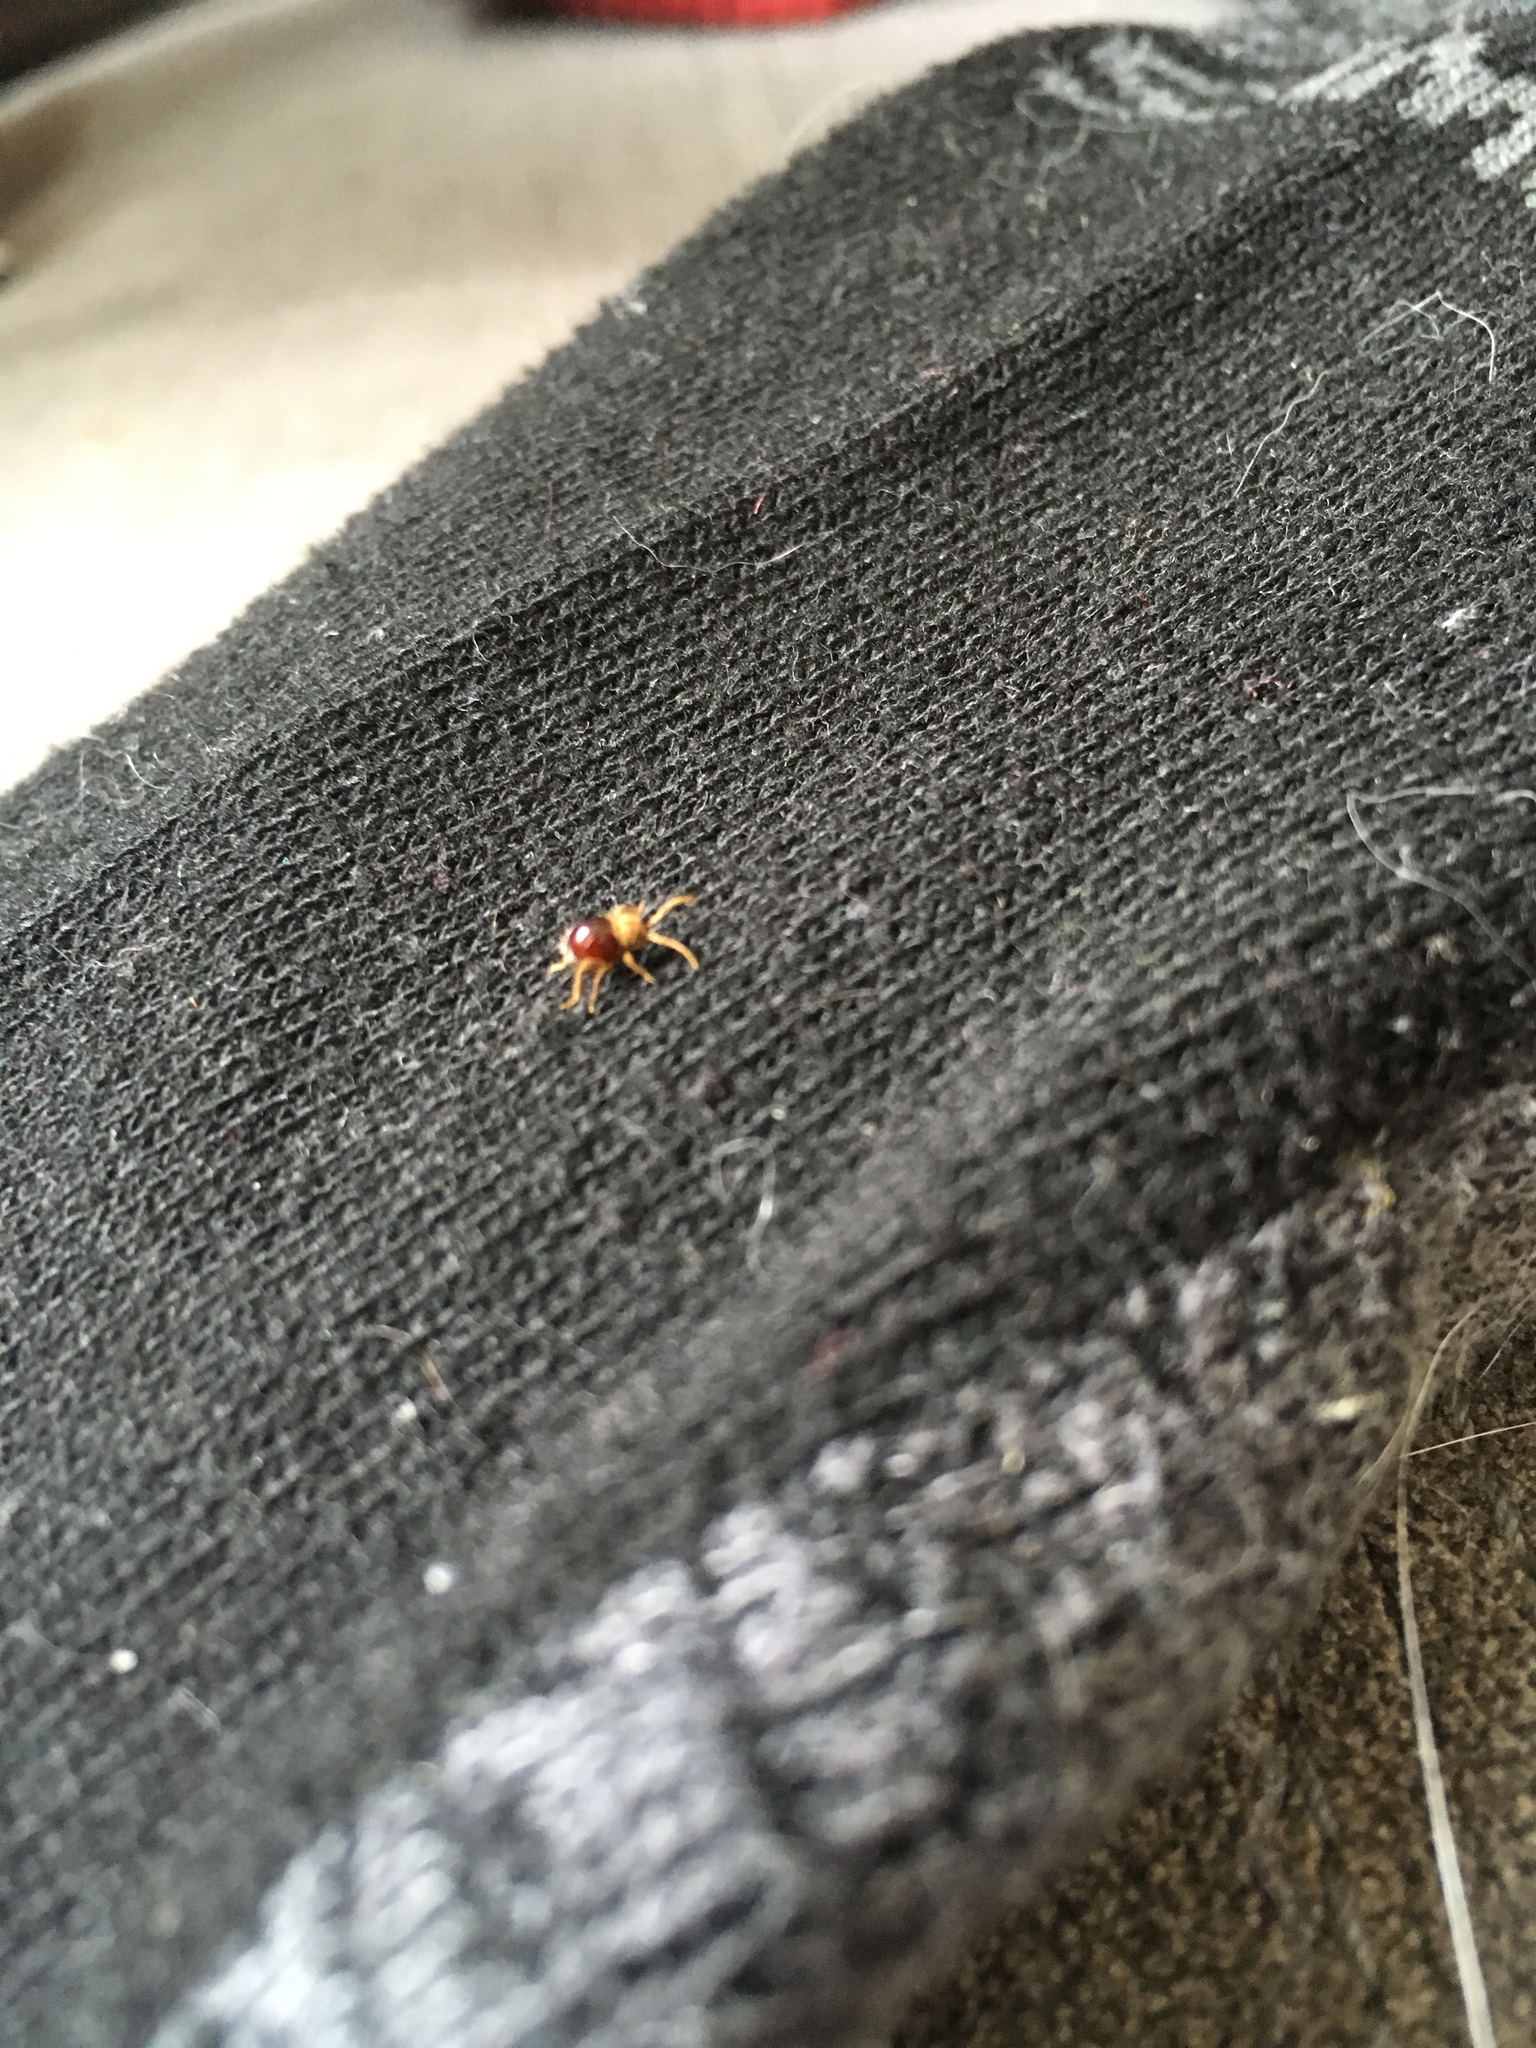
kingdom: Animalia
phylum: Arthropoda
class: Insecta
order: Coleoptera
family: Ptinidae
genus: Mezium
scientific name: Mezium affine
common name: Shiny spider beetle
